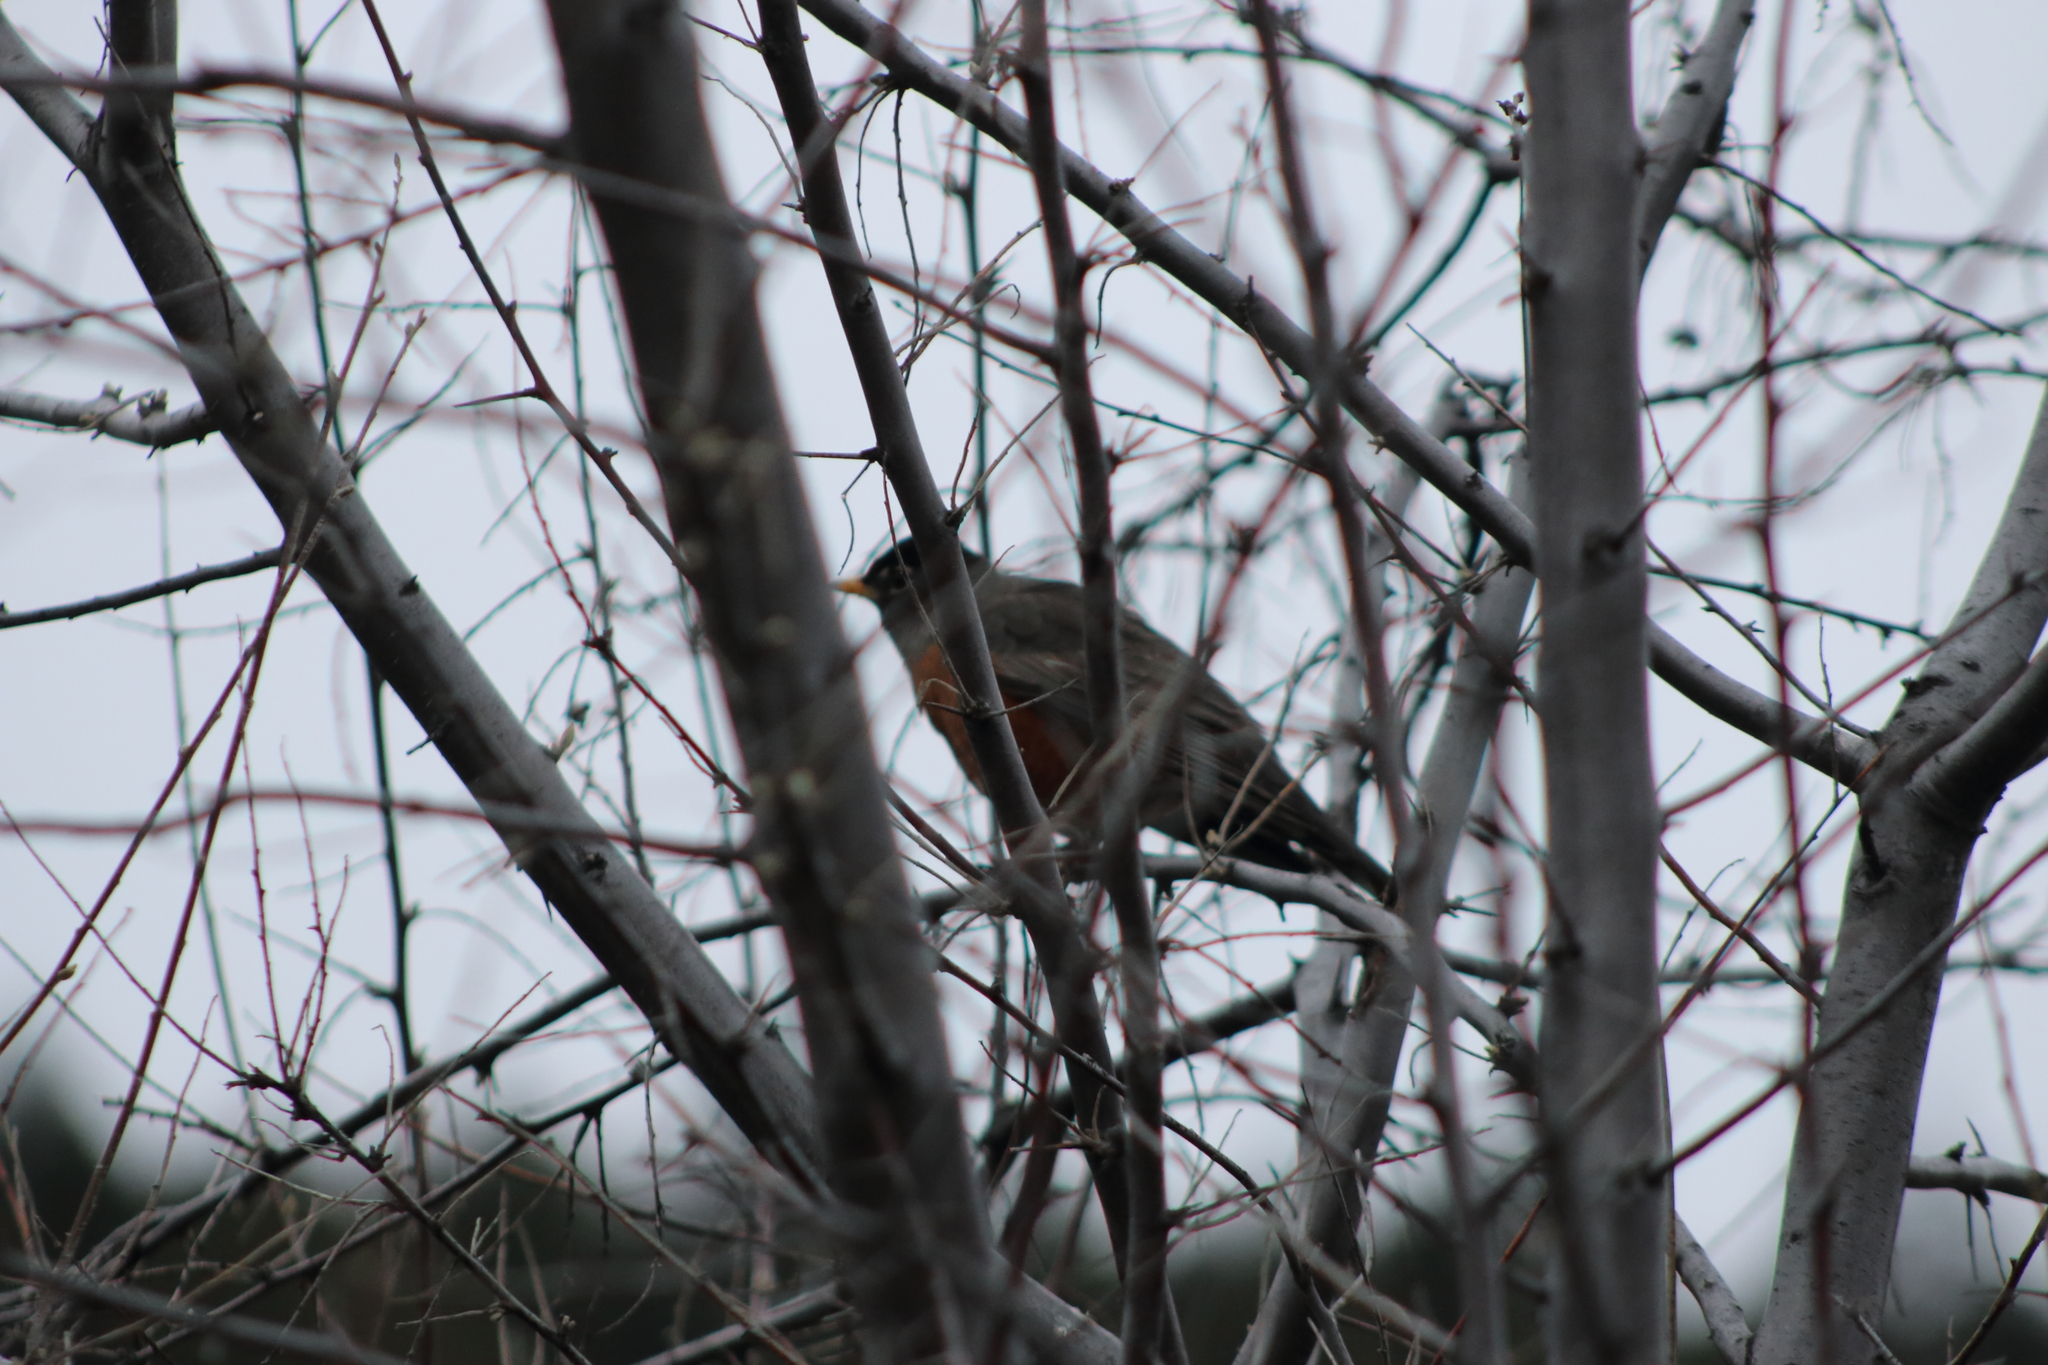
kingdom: Animalia
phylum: Chordata
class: Aves
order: Passeriformes
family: Turdidae
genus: Turdus
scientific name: Turdus migratorius
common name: American robin
